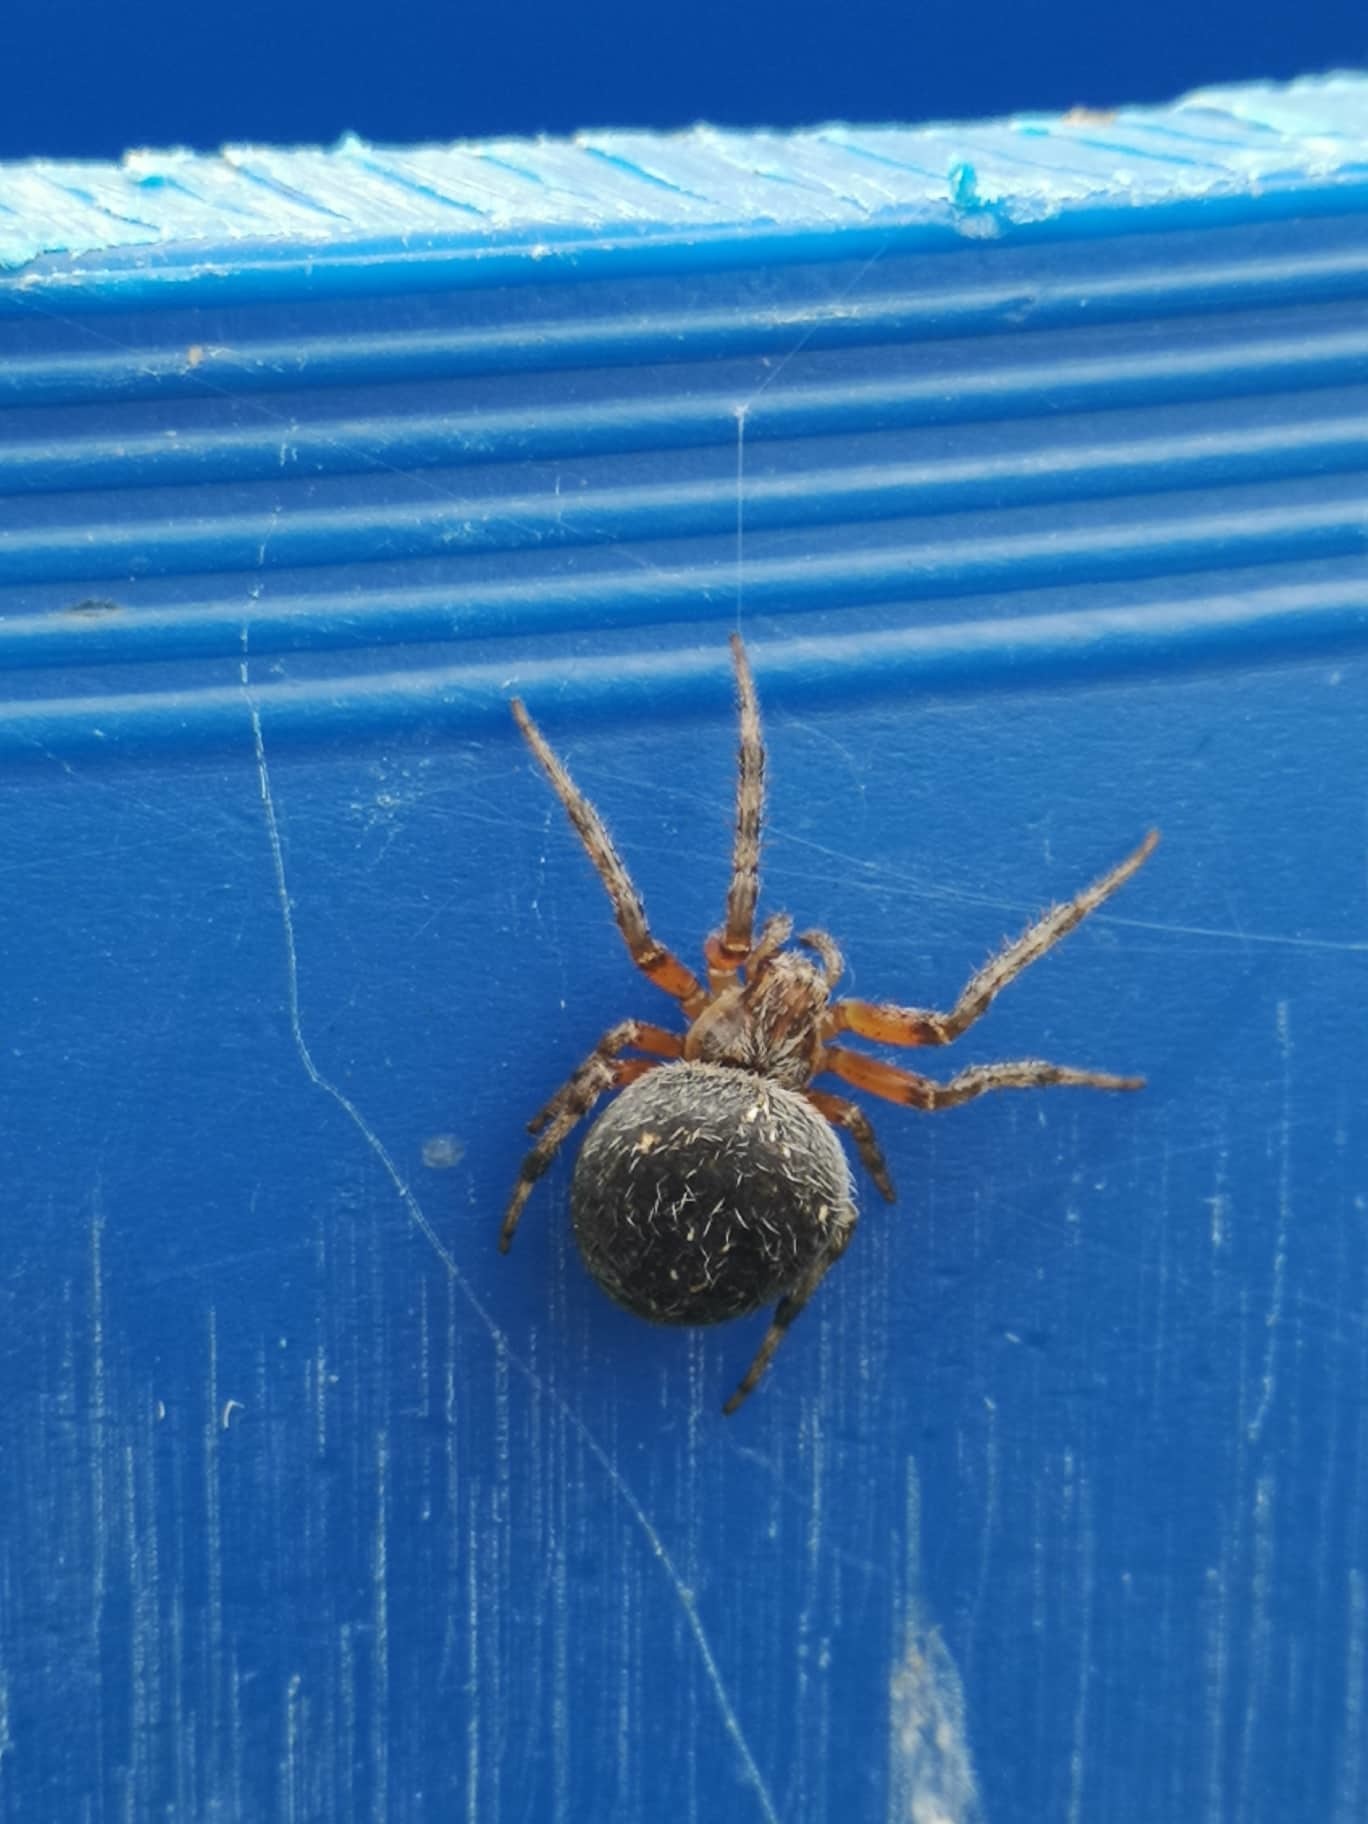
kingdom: Animalia
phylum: Arthropoda
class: Arachnida
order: Araneae
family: Araneidae
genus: Araneus
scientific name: Araneus granadensis
